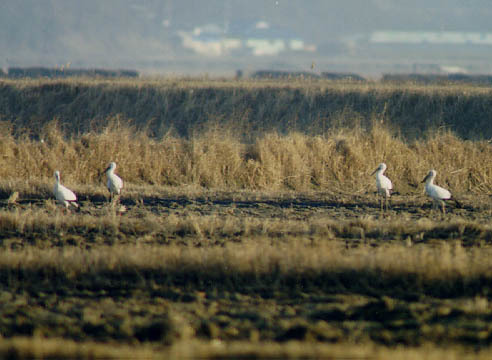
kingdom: Animalia
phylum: Chordata
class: Aves
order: Ciconiiformes
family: Ciconiidae
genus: Ciconia
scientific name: Ciconia boyciana
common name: Oriental stork
